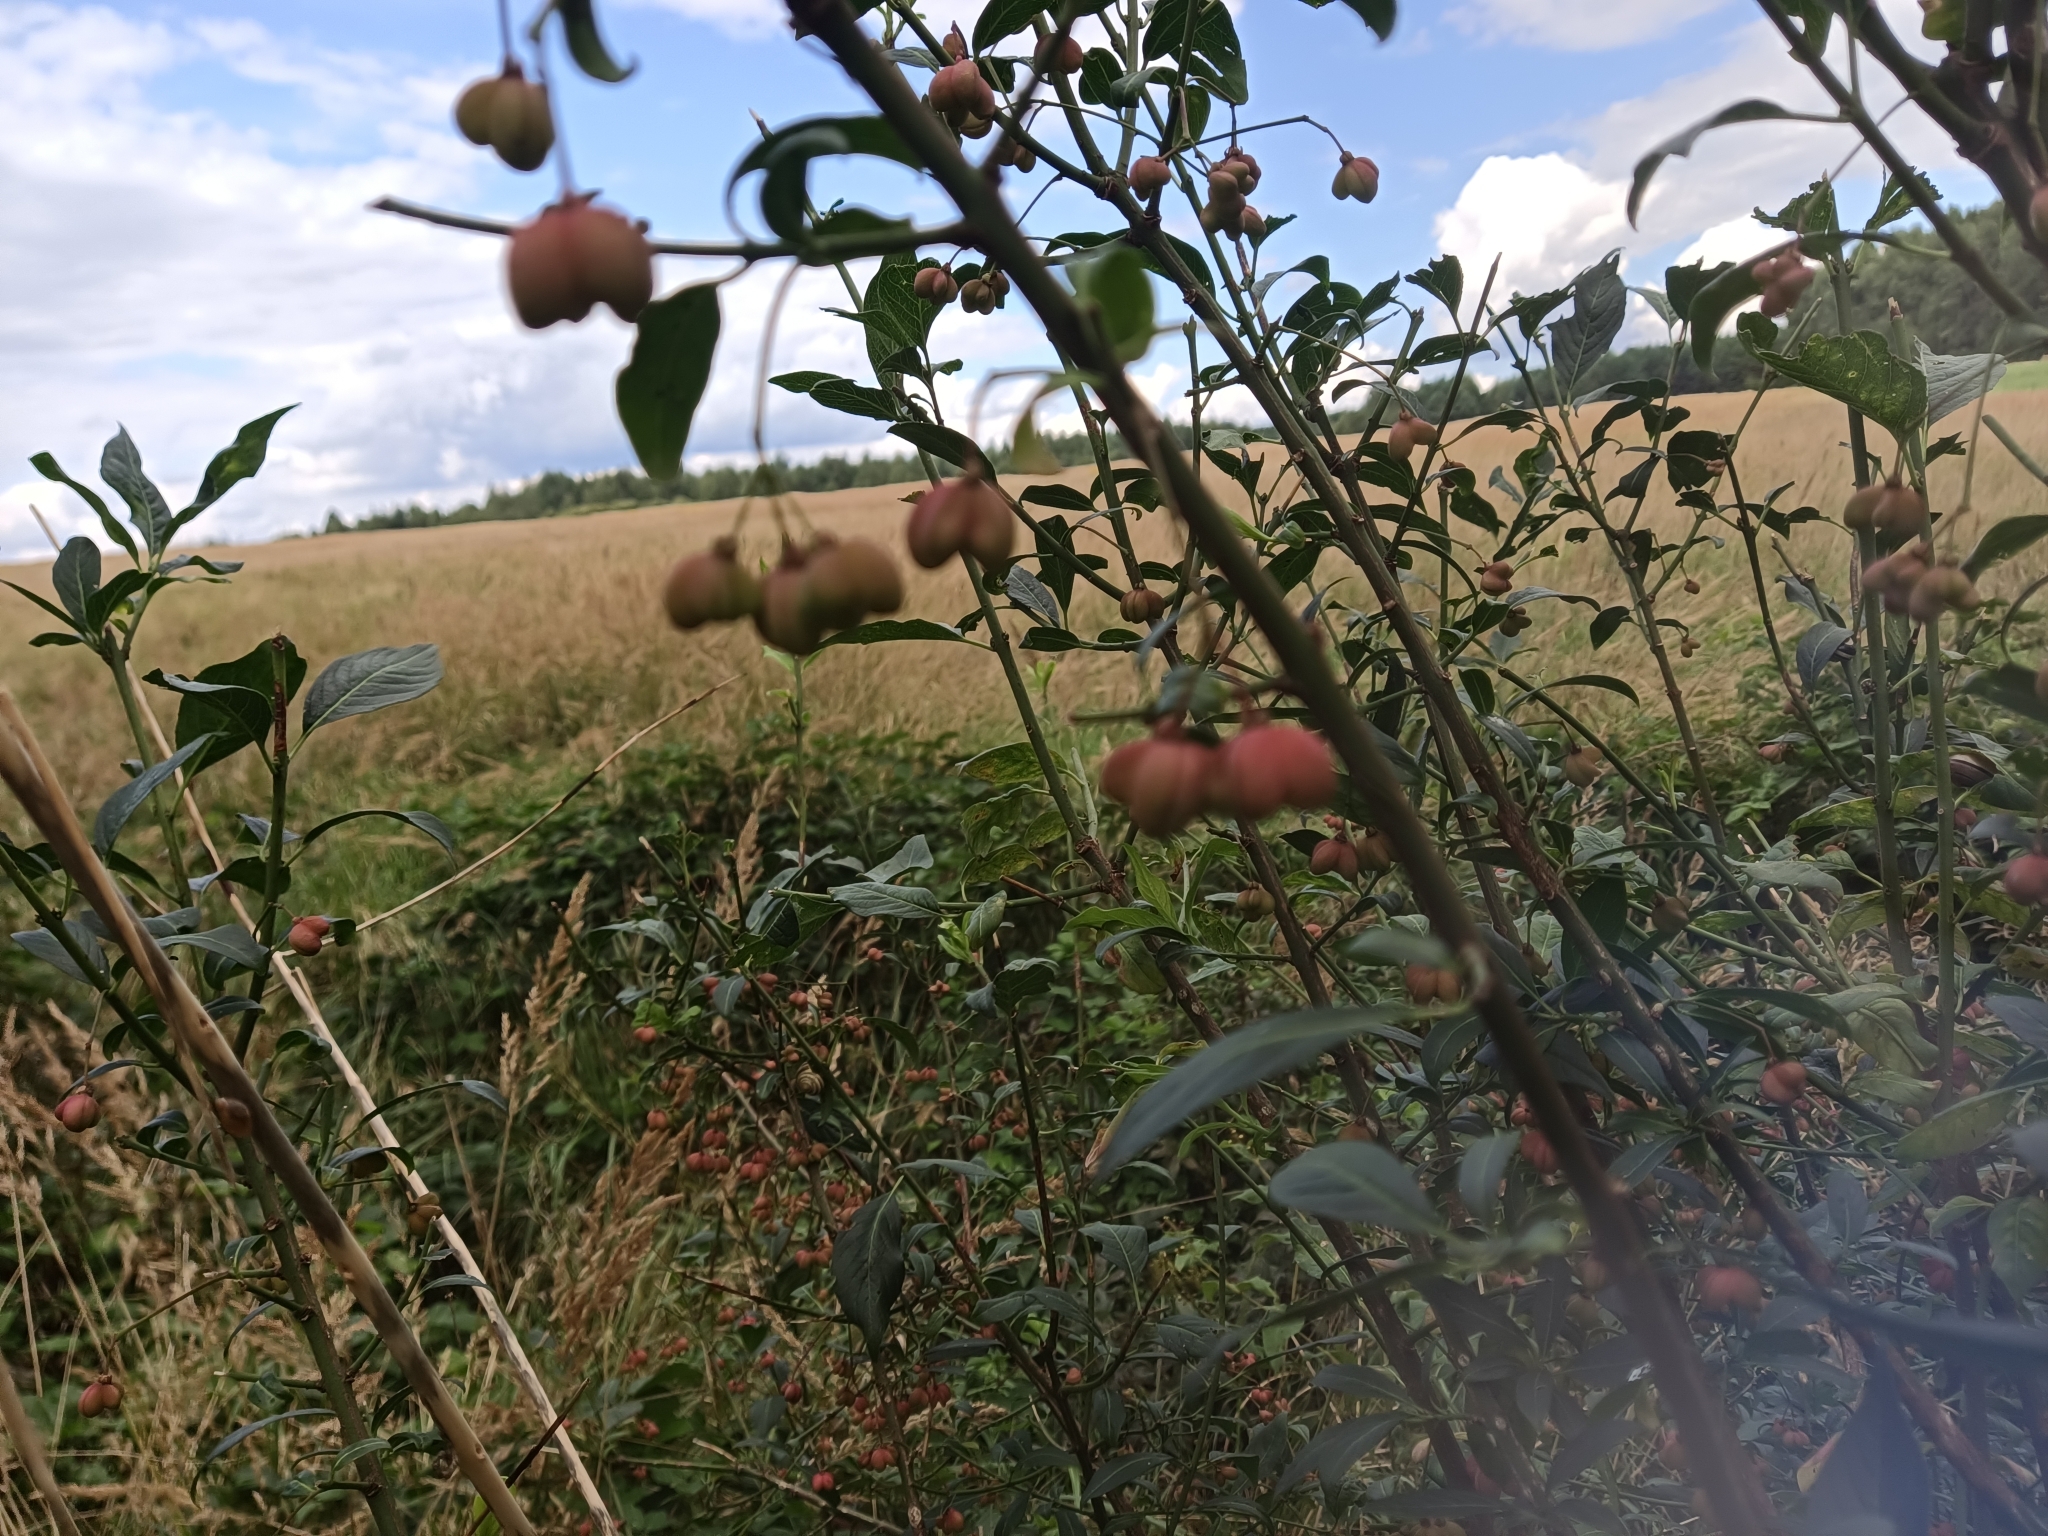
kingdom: Plantae
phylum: Tracheophyta
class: Magnoliopsida
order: Celastrales
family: Celastraceae
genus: Euonymus
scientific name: Euonymus europaeus
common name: Spindle
